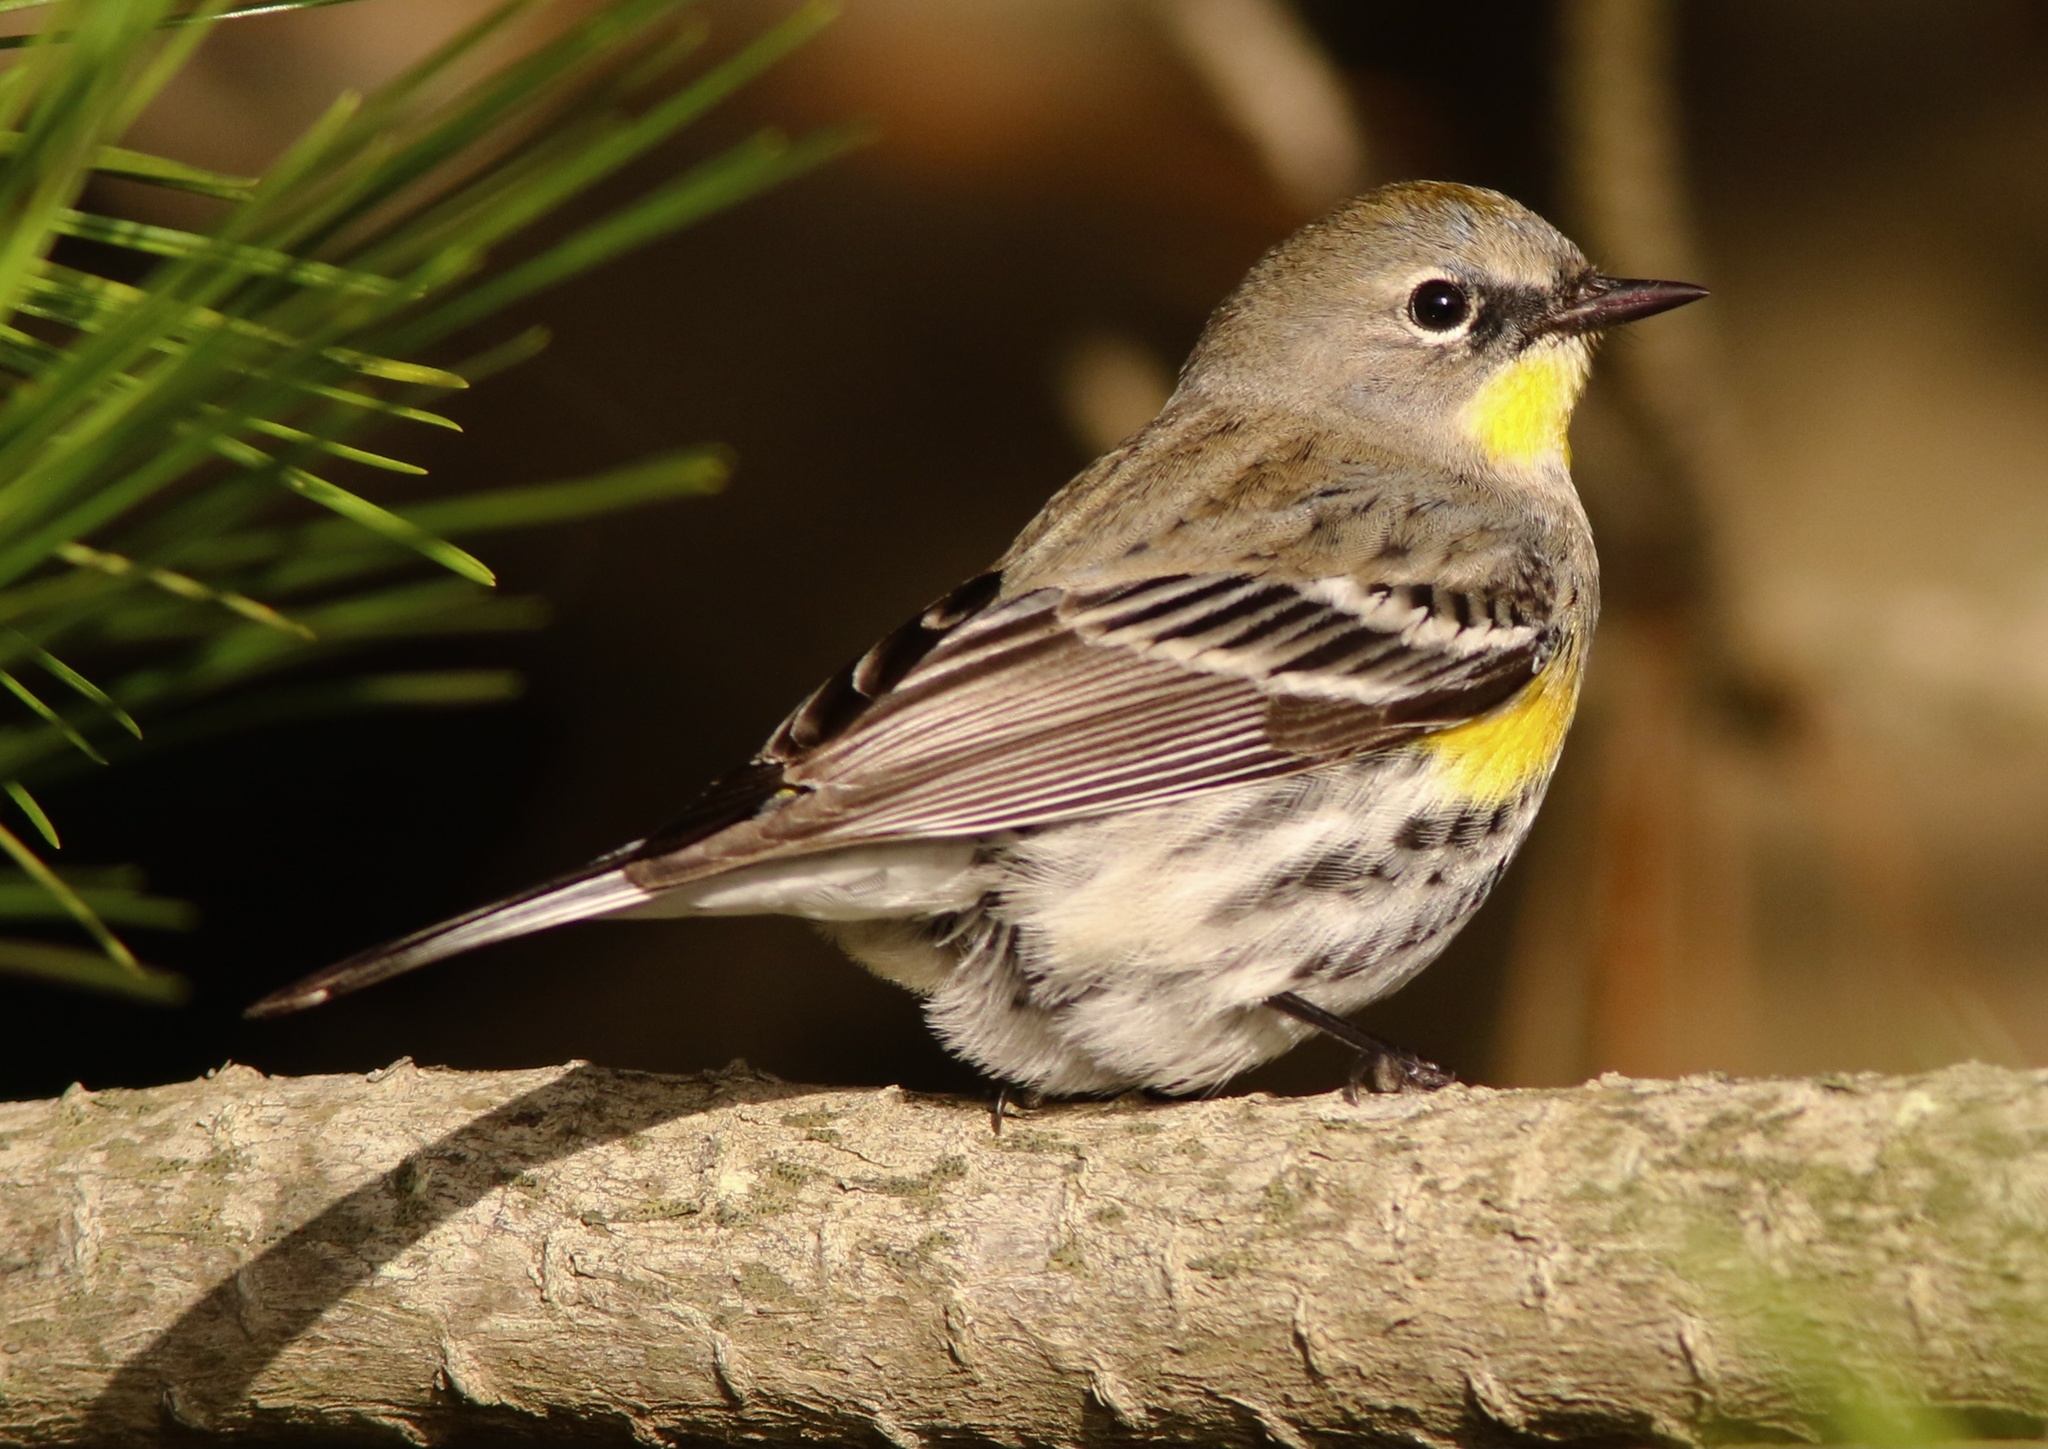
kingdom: Animalia
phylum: Chordata
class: Aves
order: Passeriformes
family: Parulidae
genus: Setophaga
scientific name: Setophaga coronata
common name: Myrtle warbler
